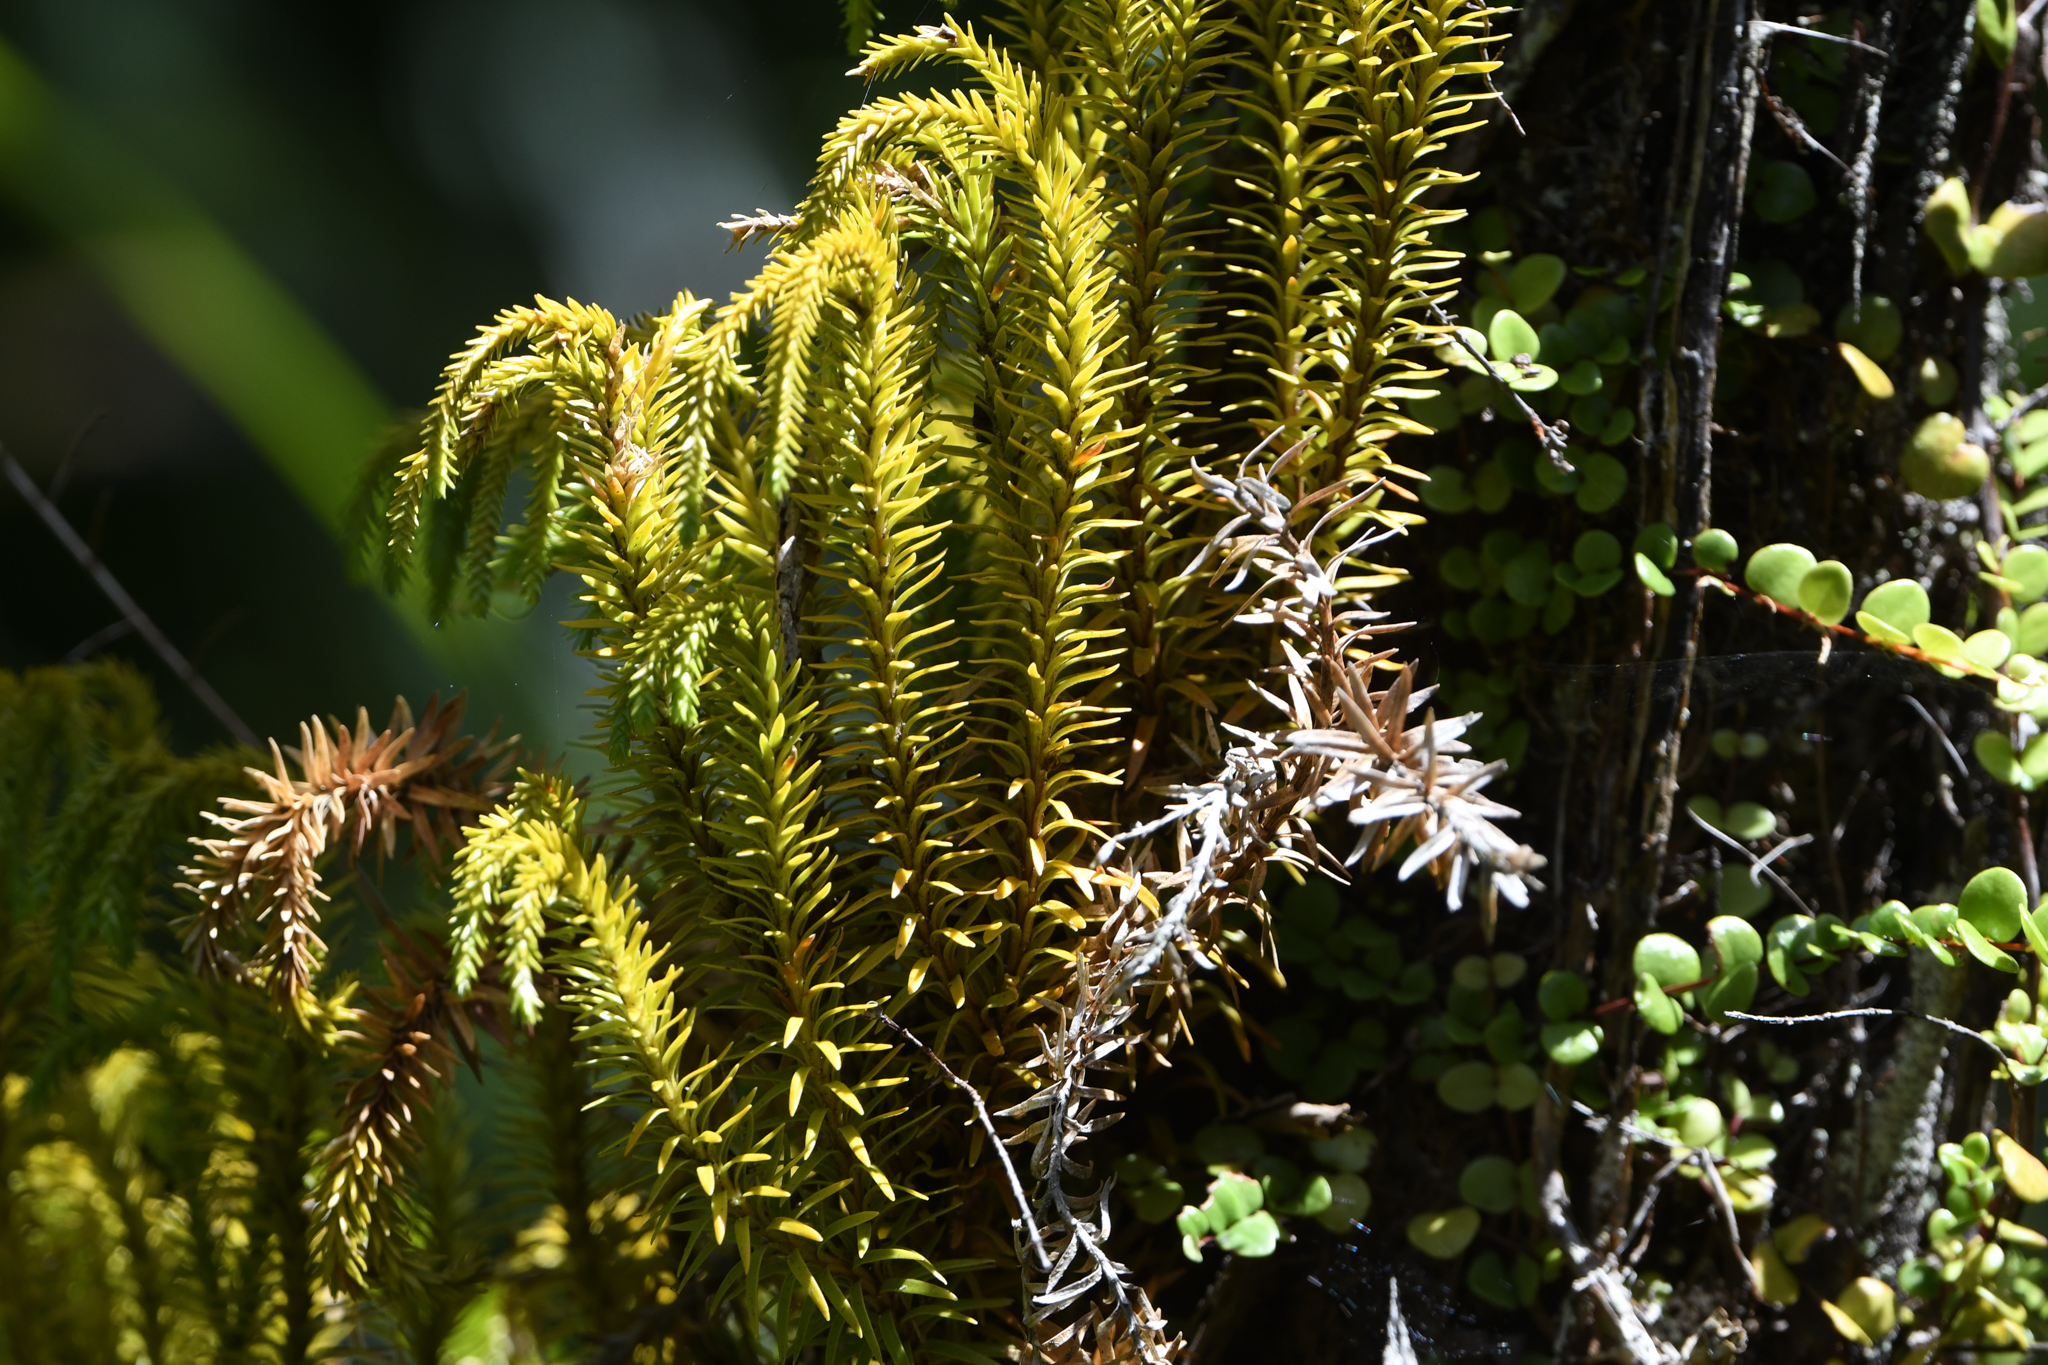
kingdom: Plantae
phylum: Tracheophyta
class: Lycopodiopsida
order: Lycopodiales
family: Lycopodiaceae
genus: Phlegmariurus
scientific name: Phlegmariurus varius
